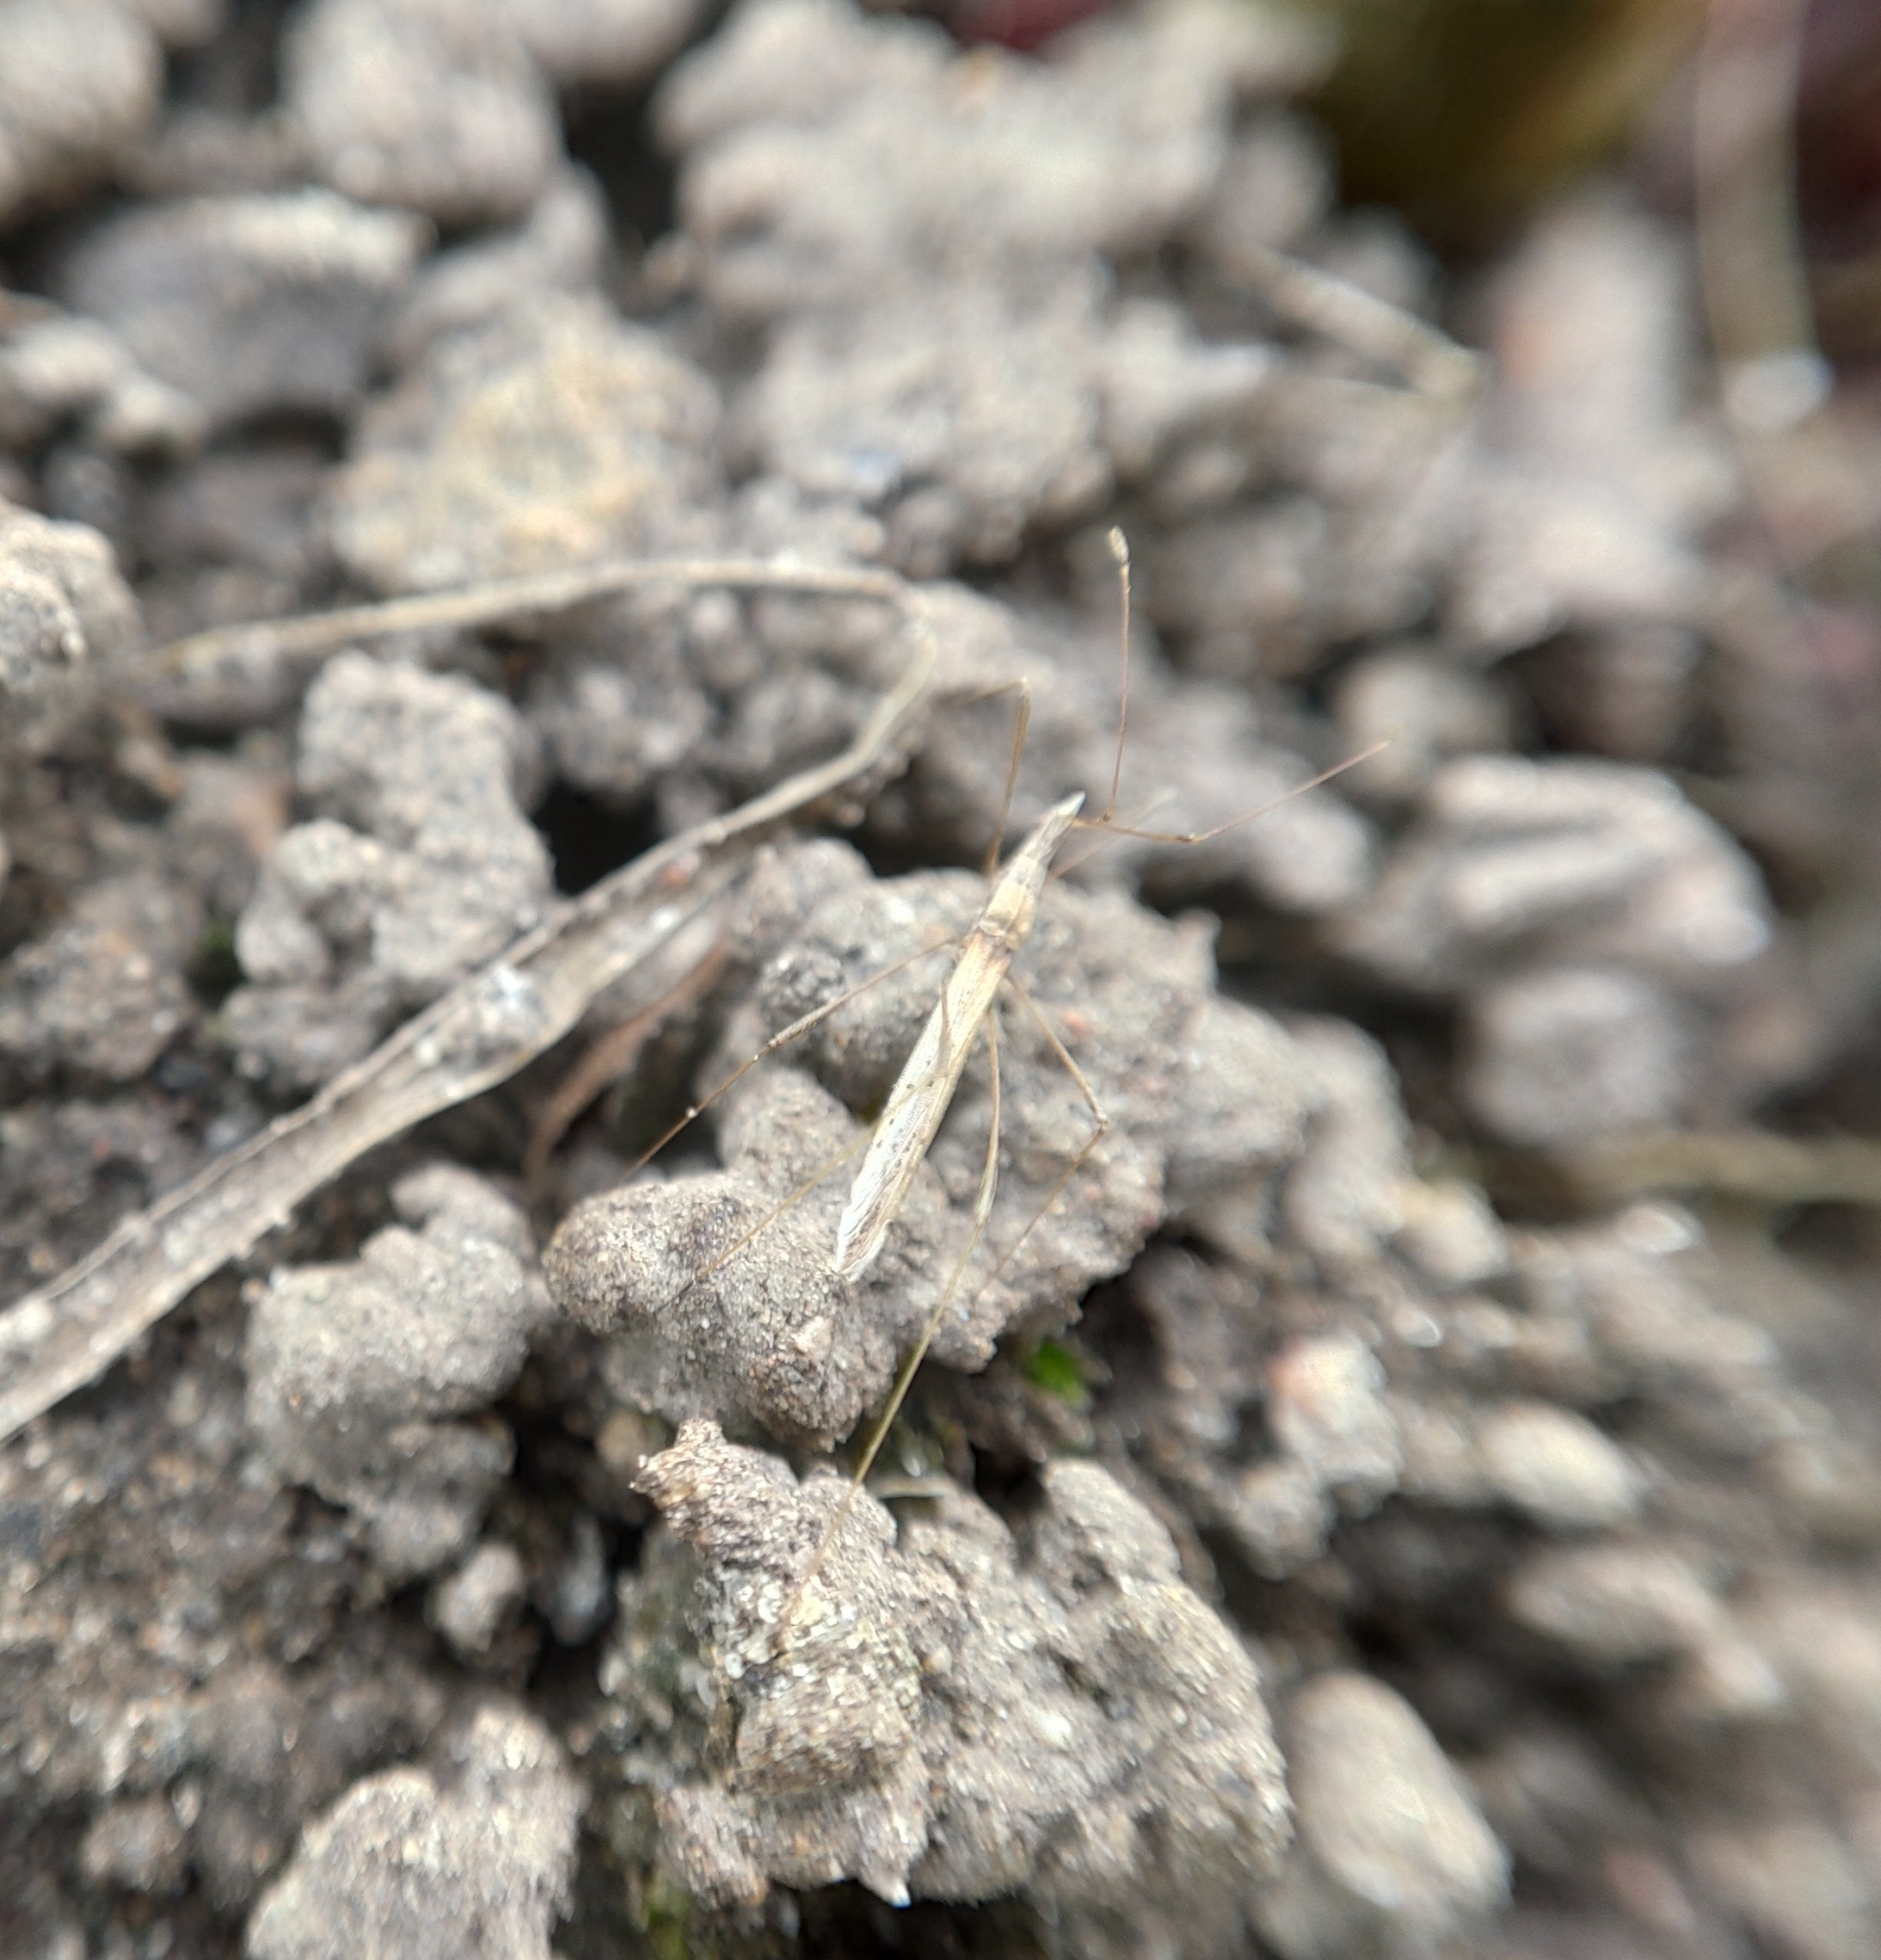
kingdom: Animalia
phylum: Arthropoda
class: Insecta
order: Hemiptera
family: Berytidae
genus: Neides
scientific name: Neides tipularius
